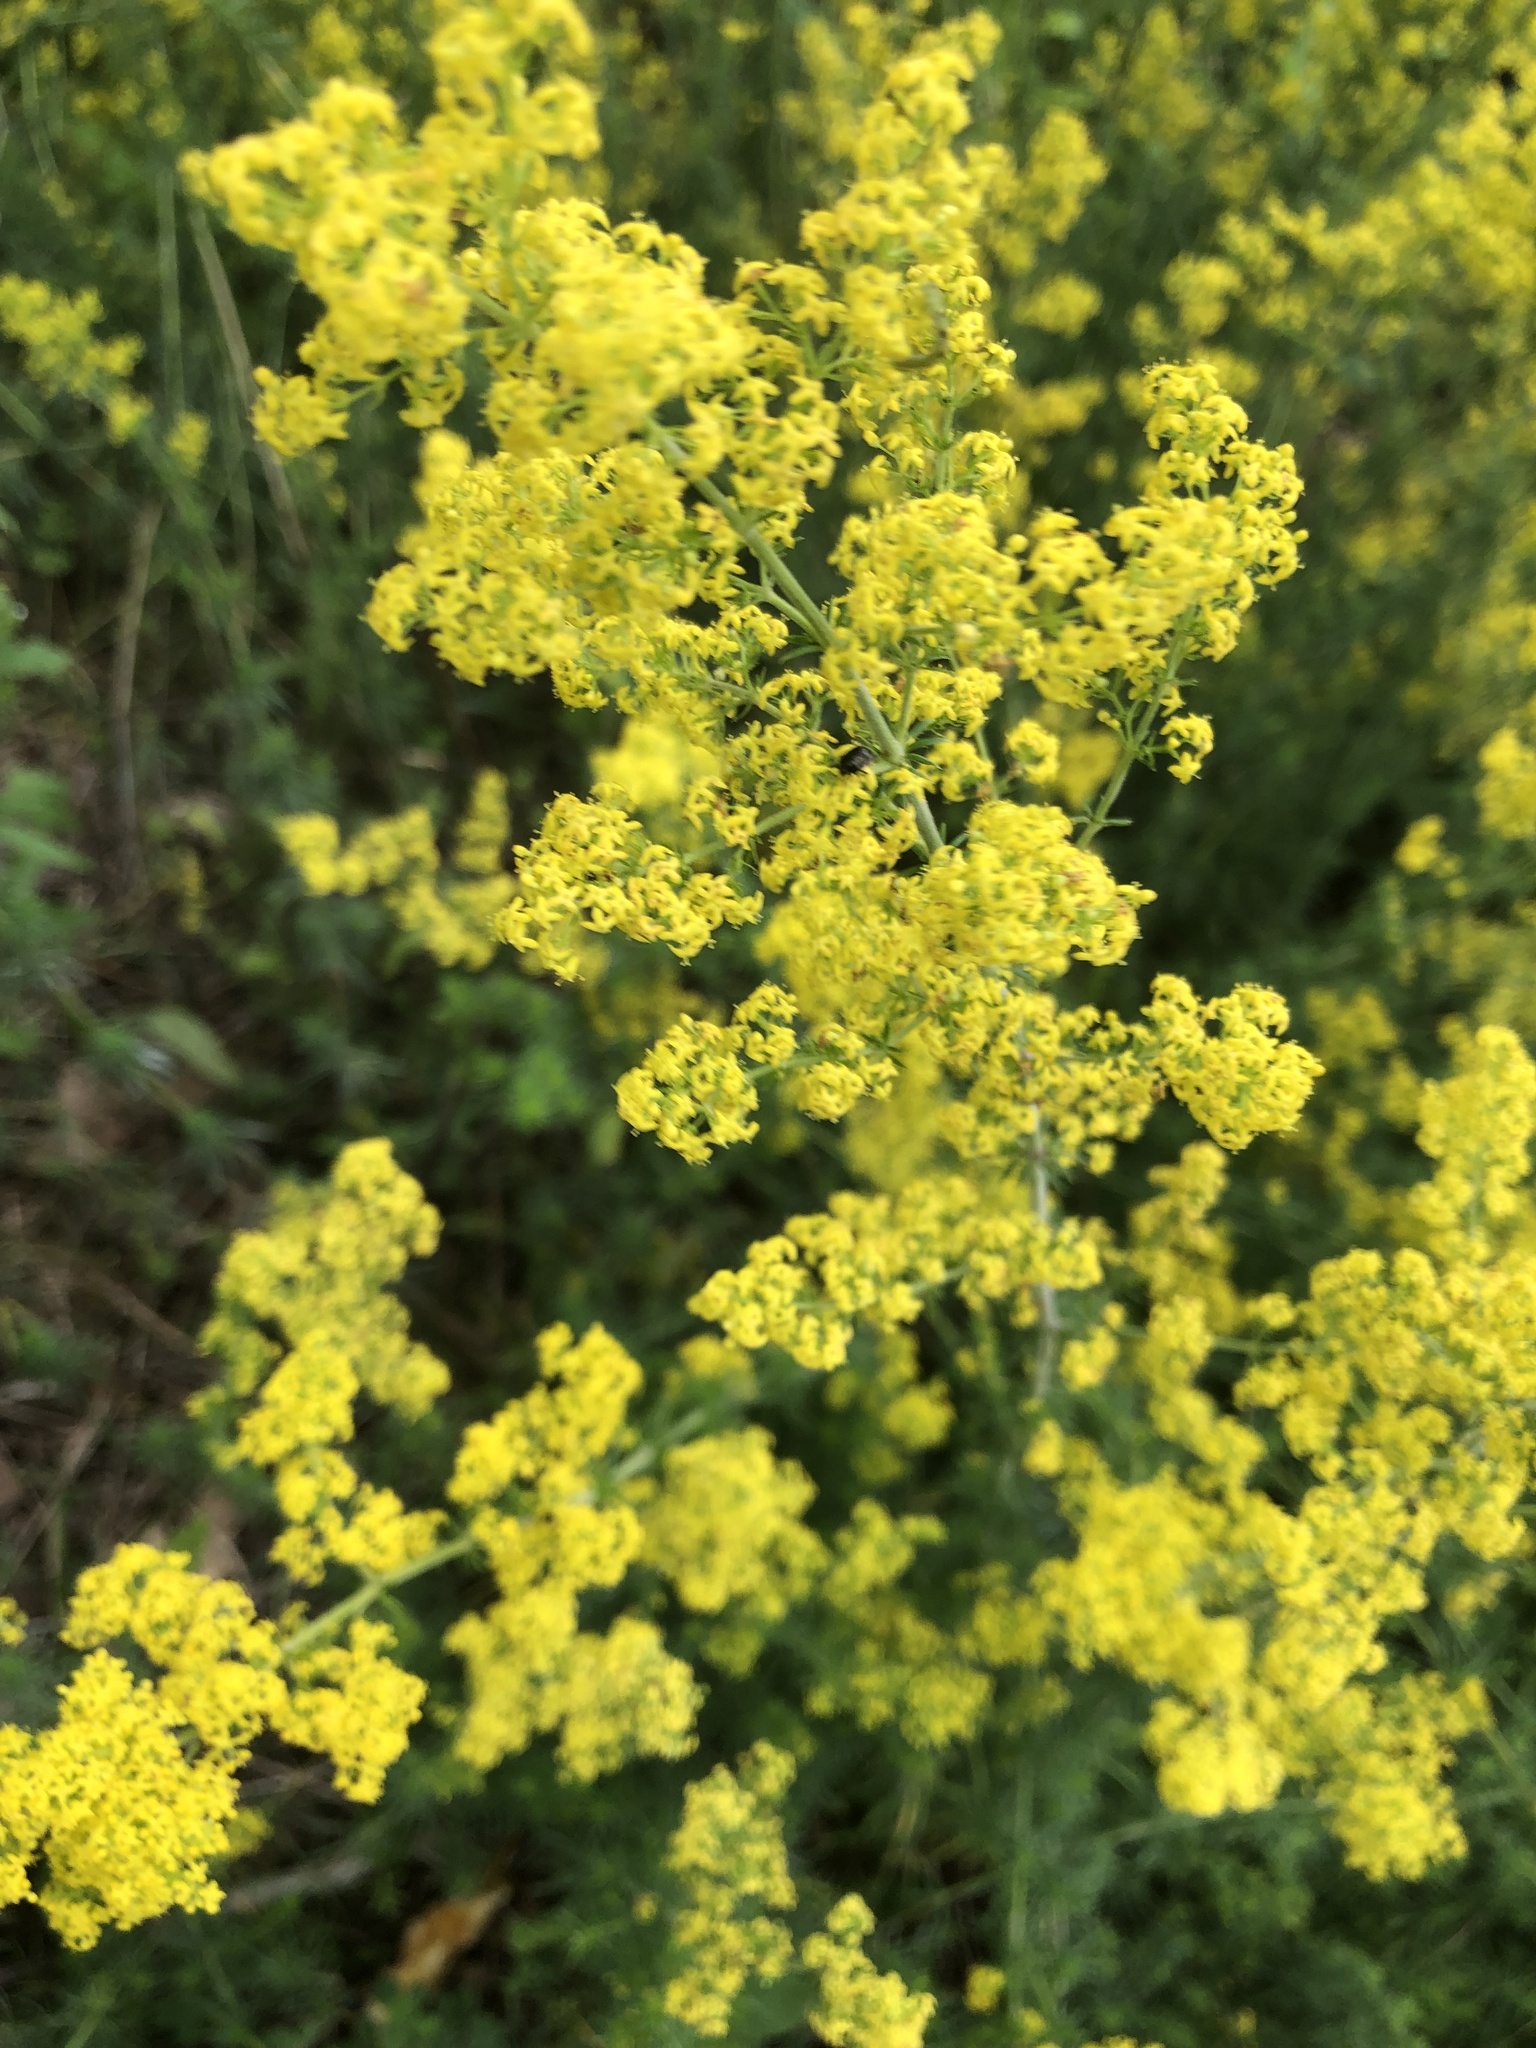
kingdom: Plantae
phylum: Tracheophyta
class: Magnoliopsida
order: Gentianales
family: Rubiaceae
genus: Galium
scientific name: Galium verum
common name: Lady's bedstraw
